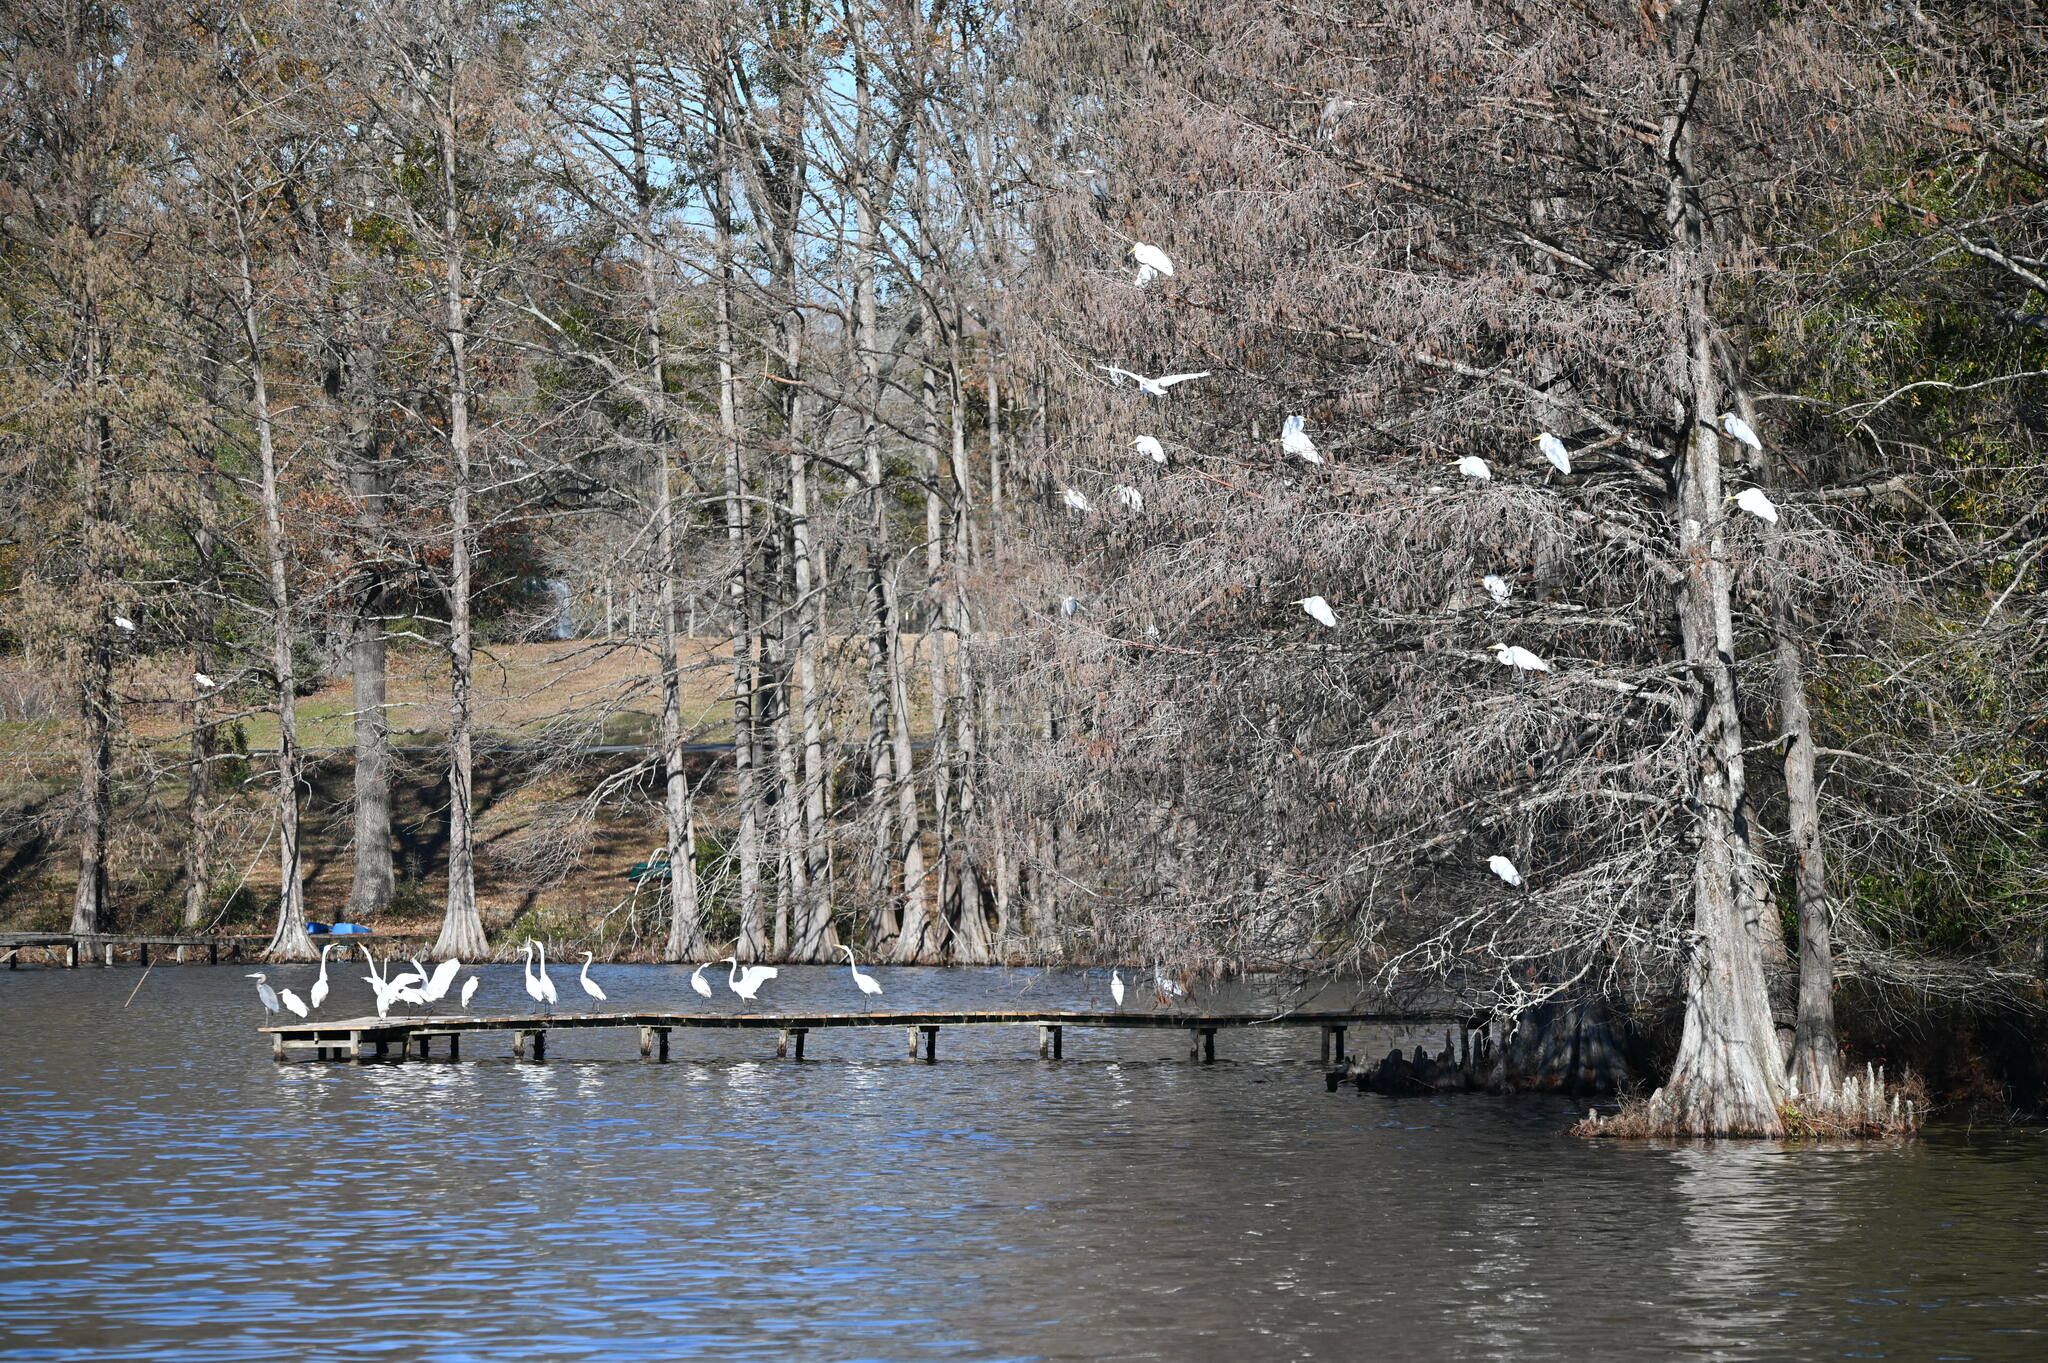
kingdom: Animalia
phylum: Chordata
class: Aves
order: Pelecaniformes
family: Ardeidae
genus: Ardea
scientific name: Ardea alba
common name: Great egret
